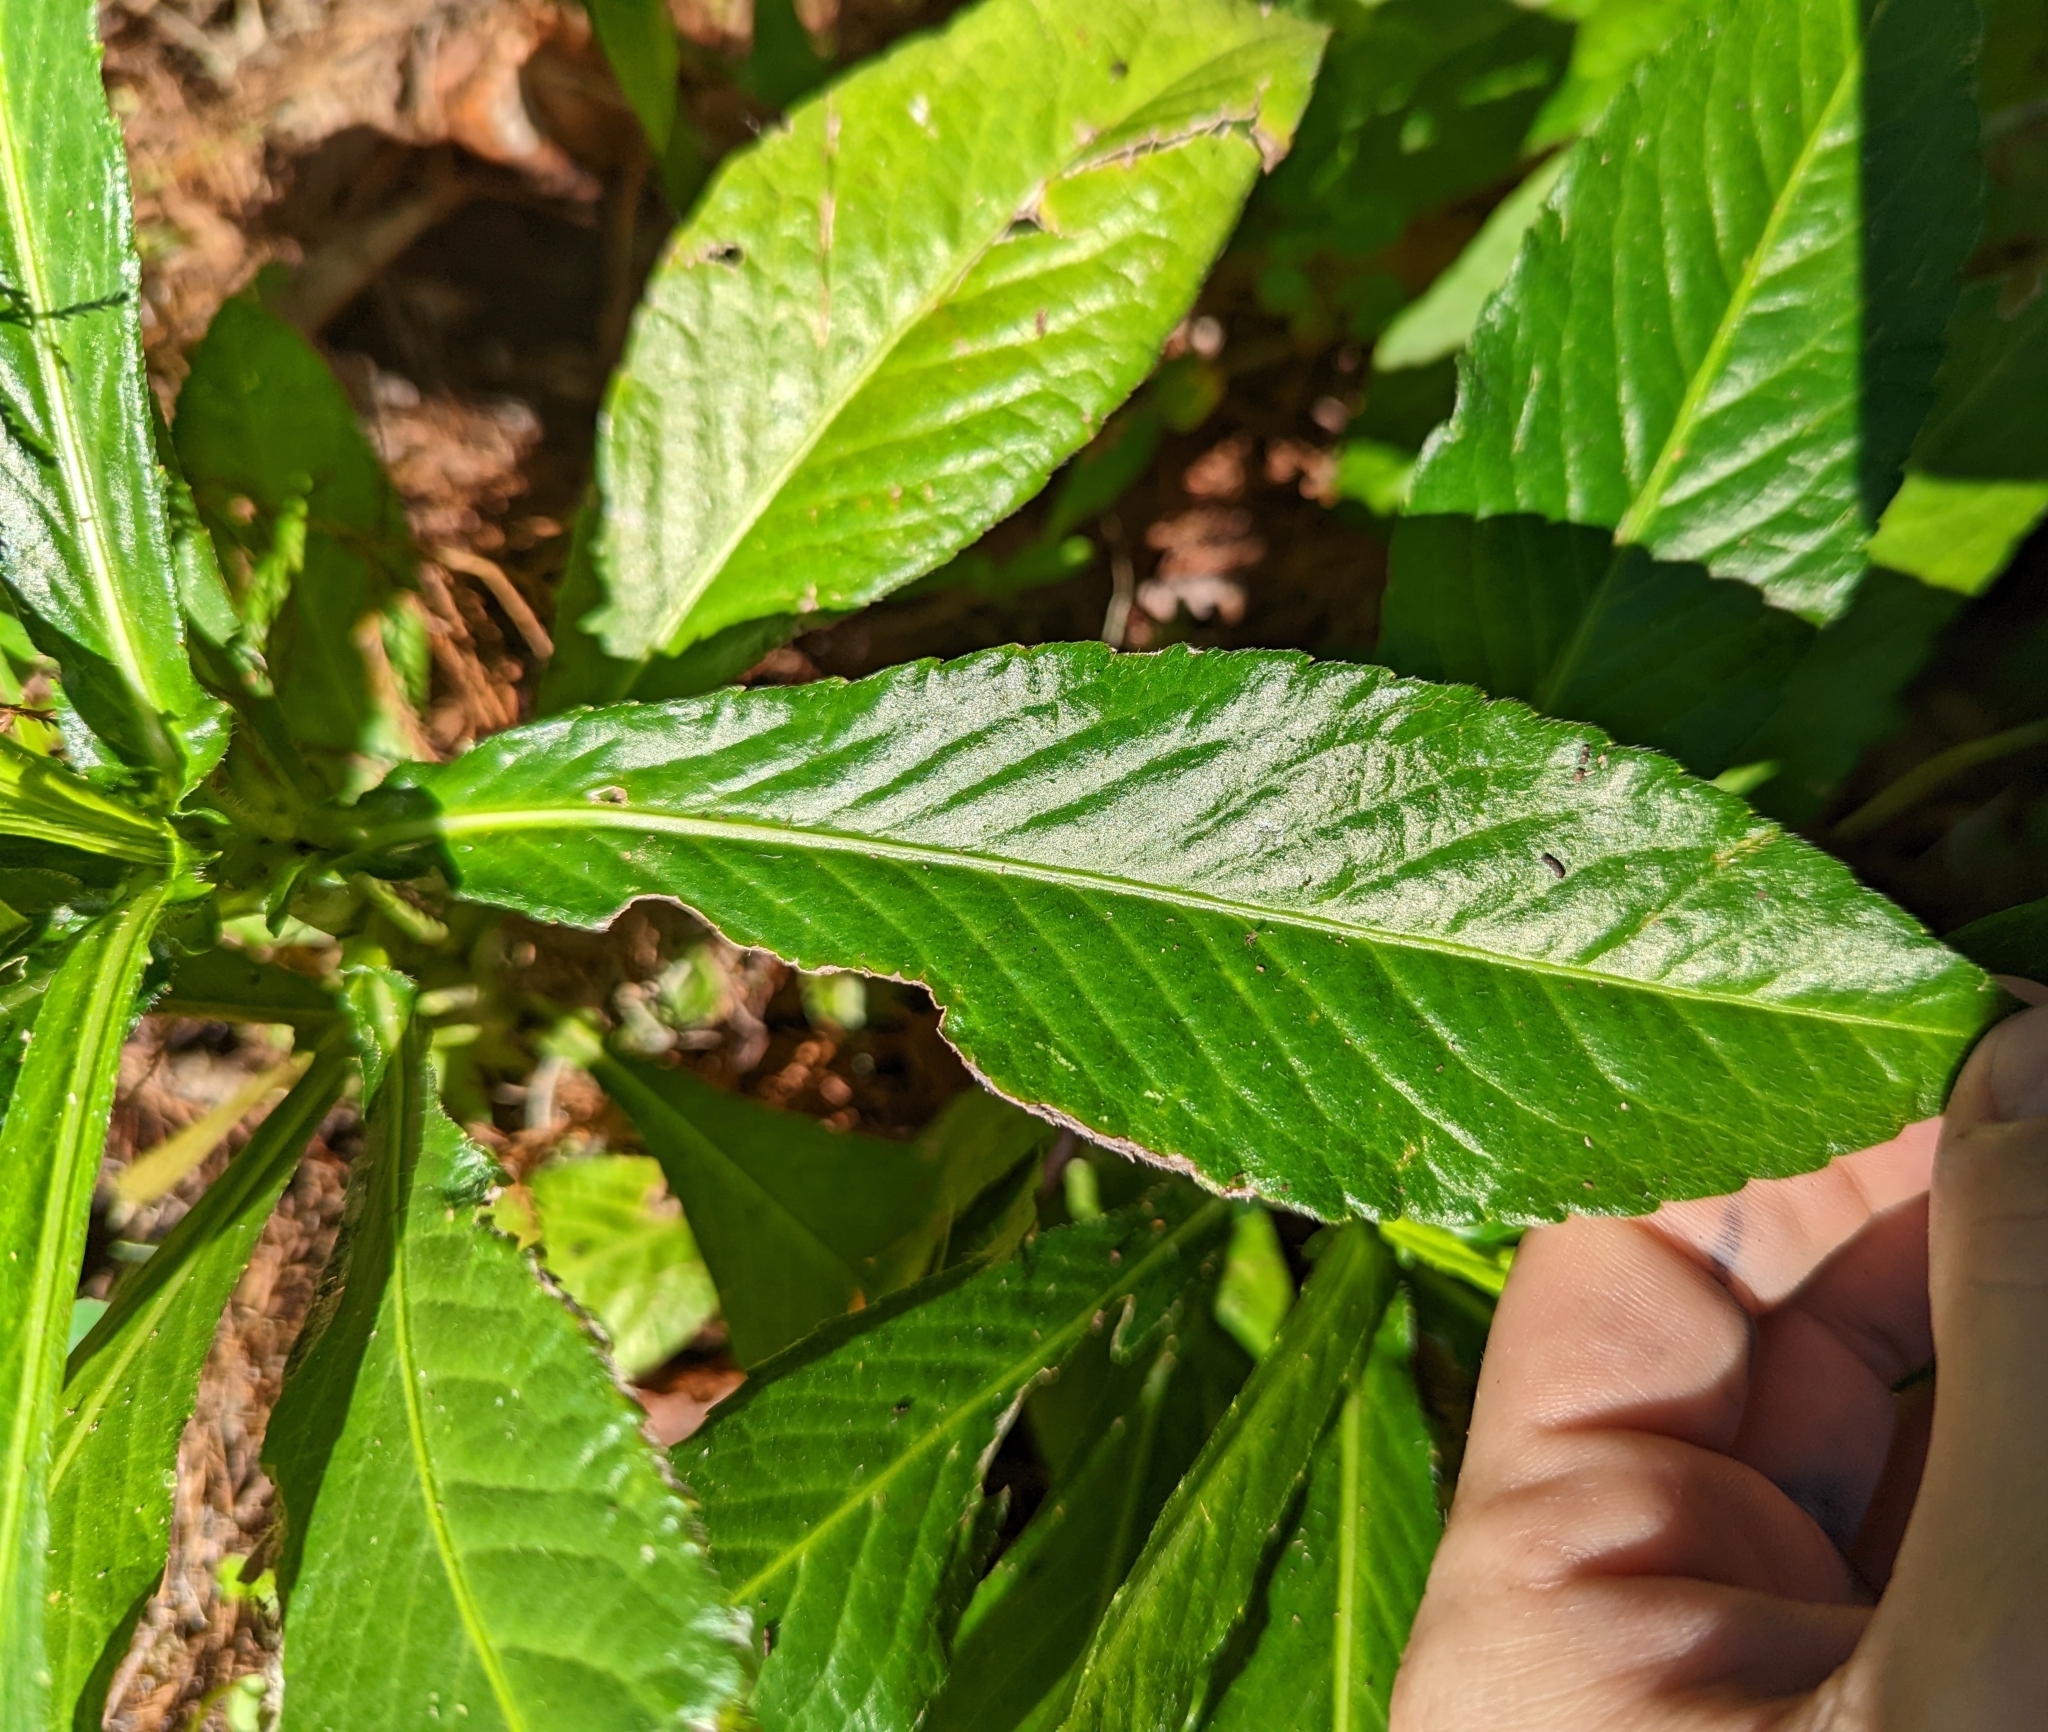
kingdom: Plantae
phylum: Tracheophyta
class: Magnoliopsida
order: Asterales
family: Asteraceae
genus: Pseudelephantopus
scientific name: Pseudelephantopus spicatus
